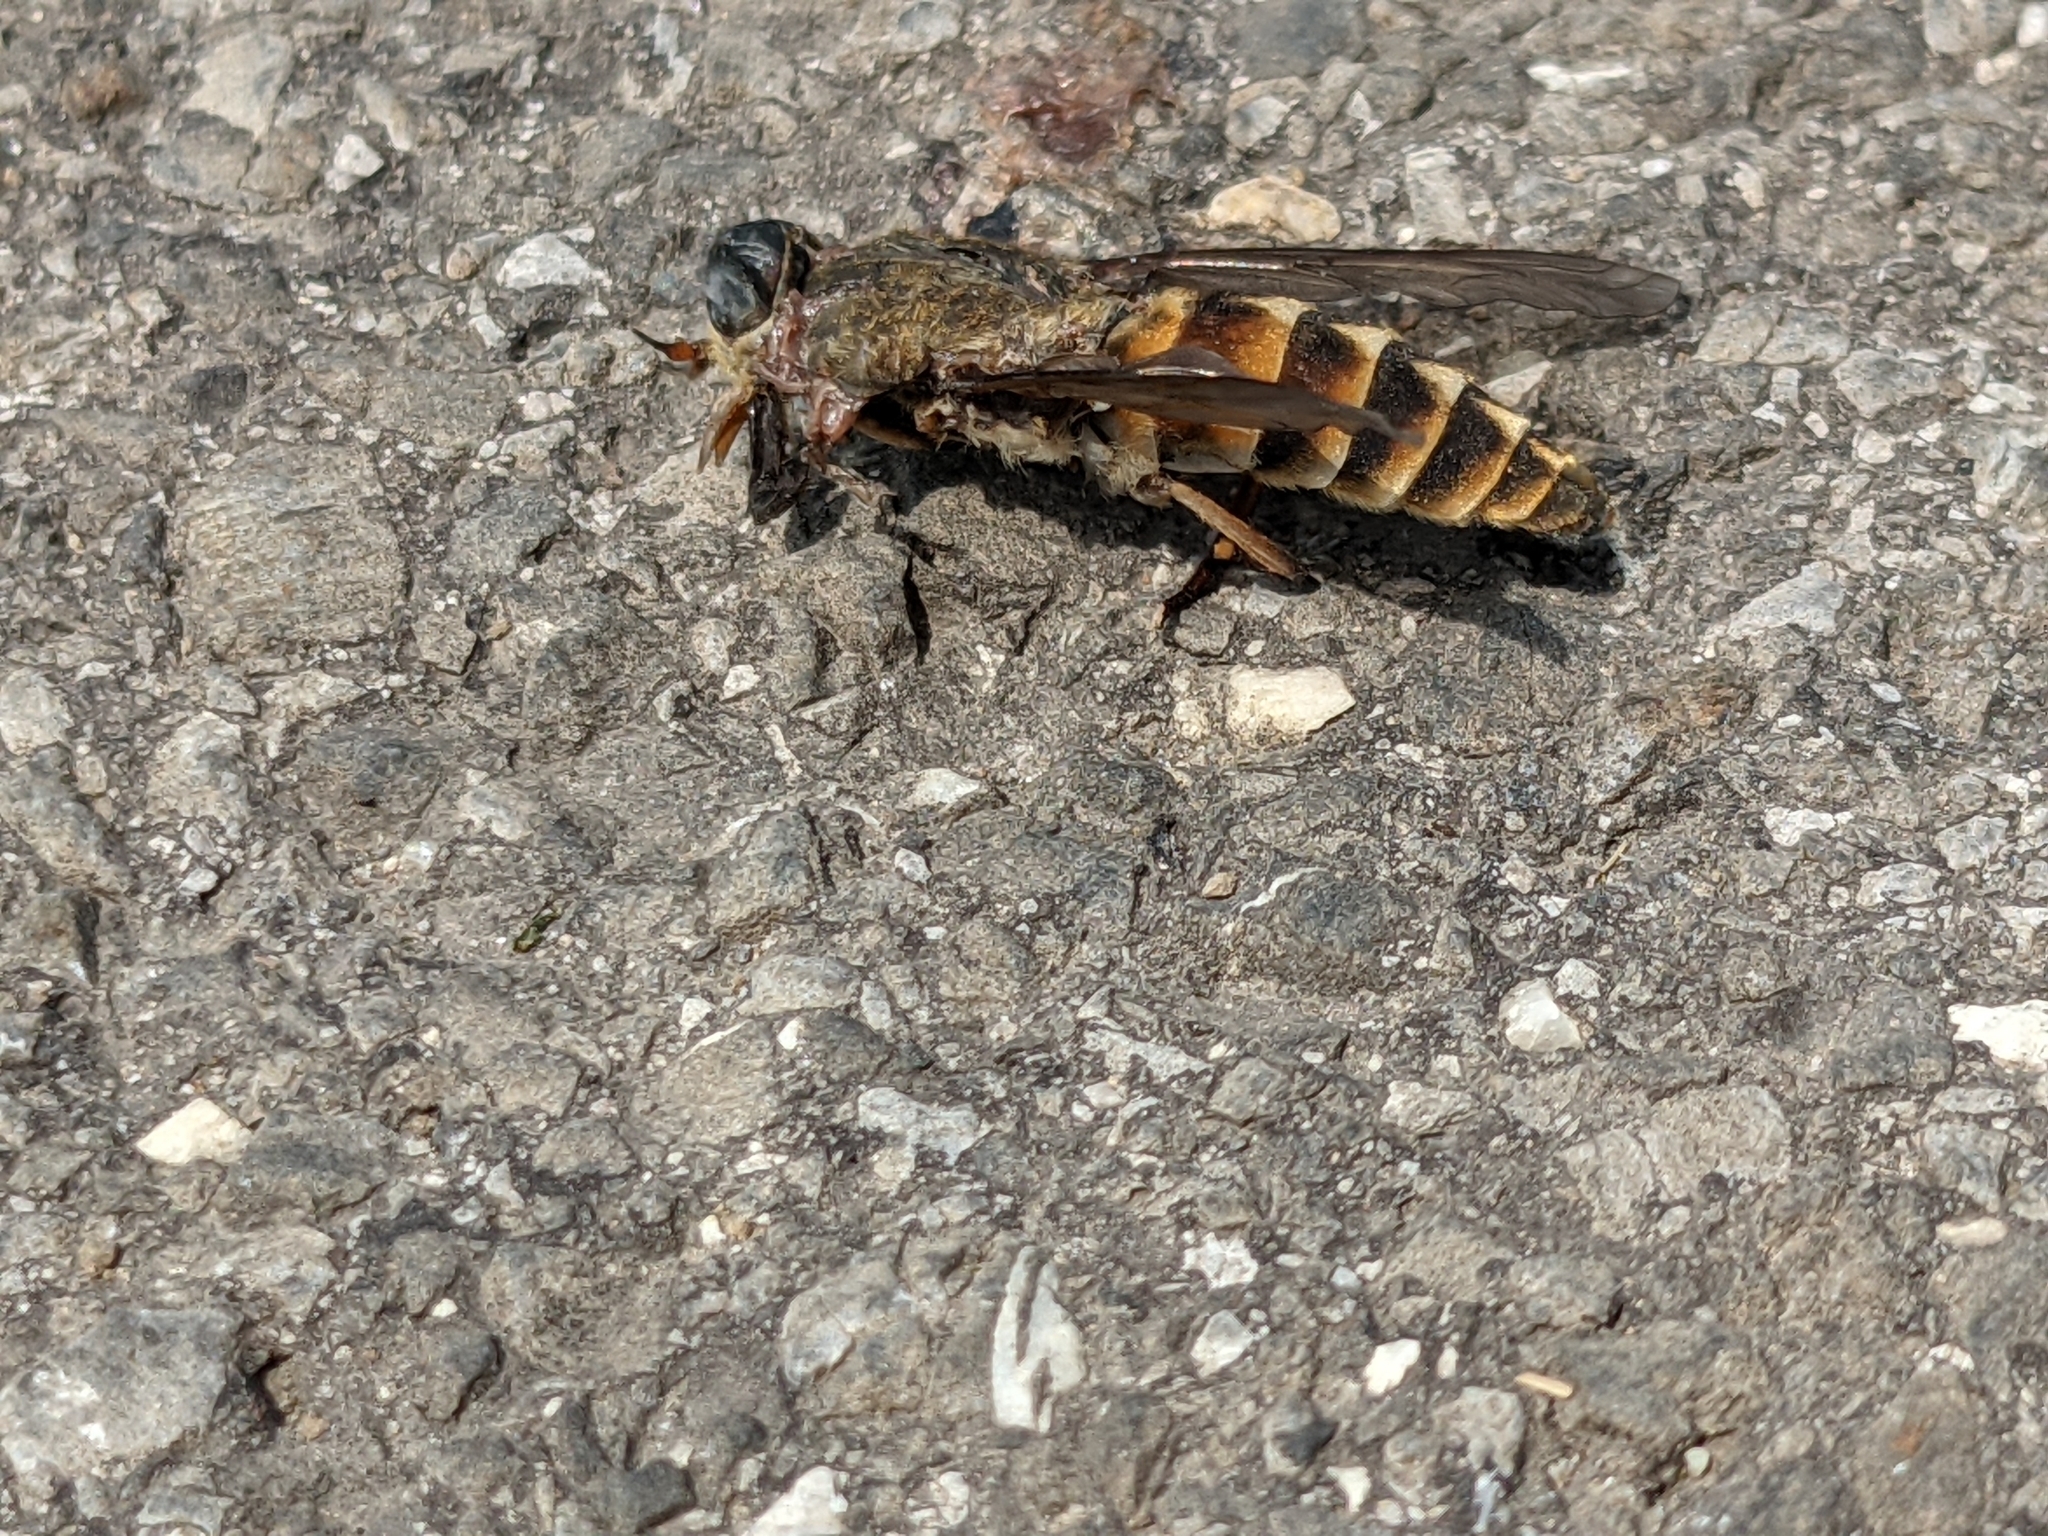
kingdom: Animalia
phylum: Arthropoda
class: Insecta
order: Diptera
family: Tabanidae
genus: Tabanus
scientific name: Tabanus sudeticus
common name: Dark giant horsefly
